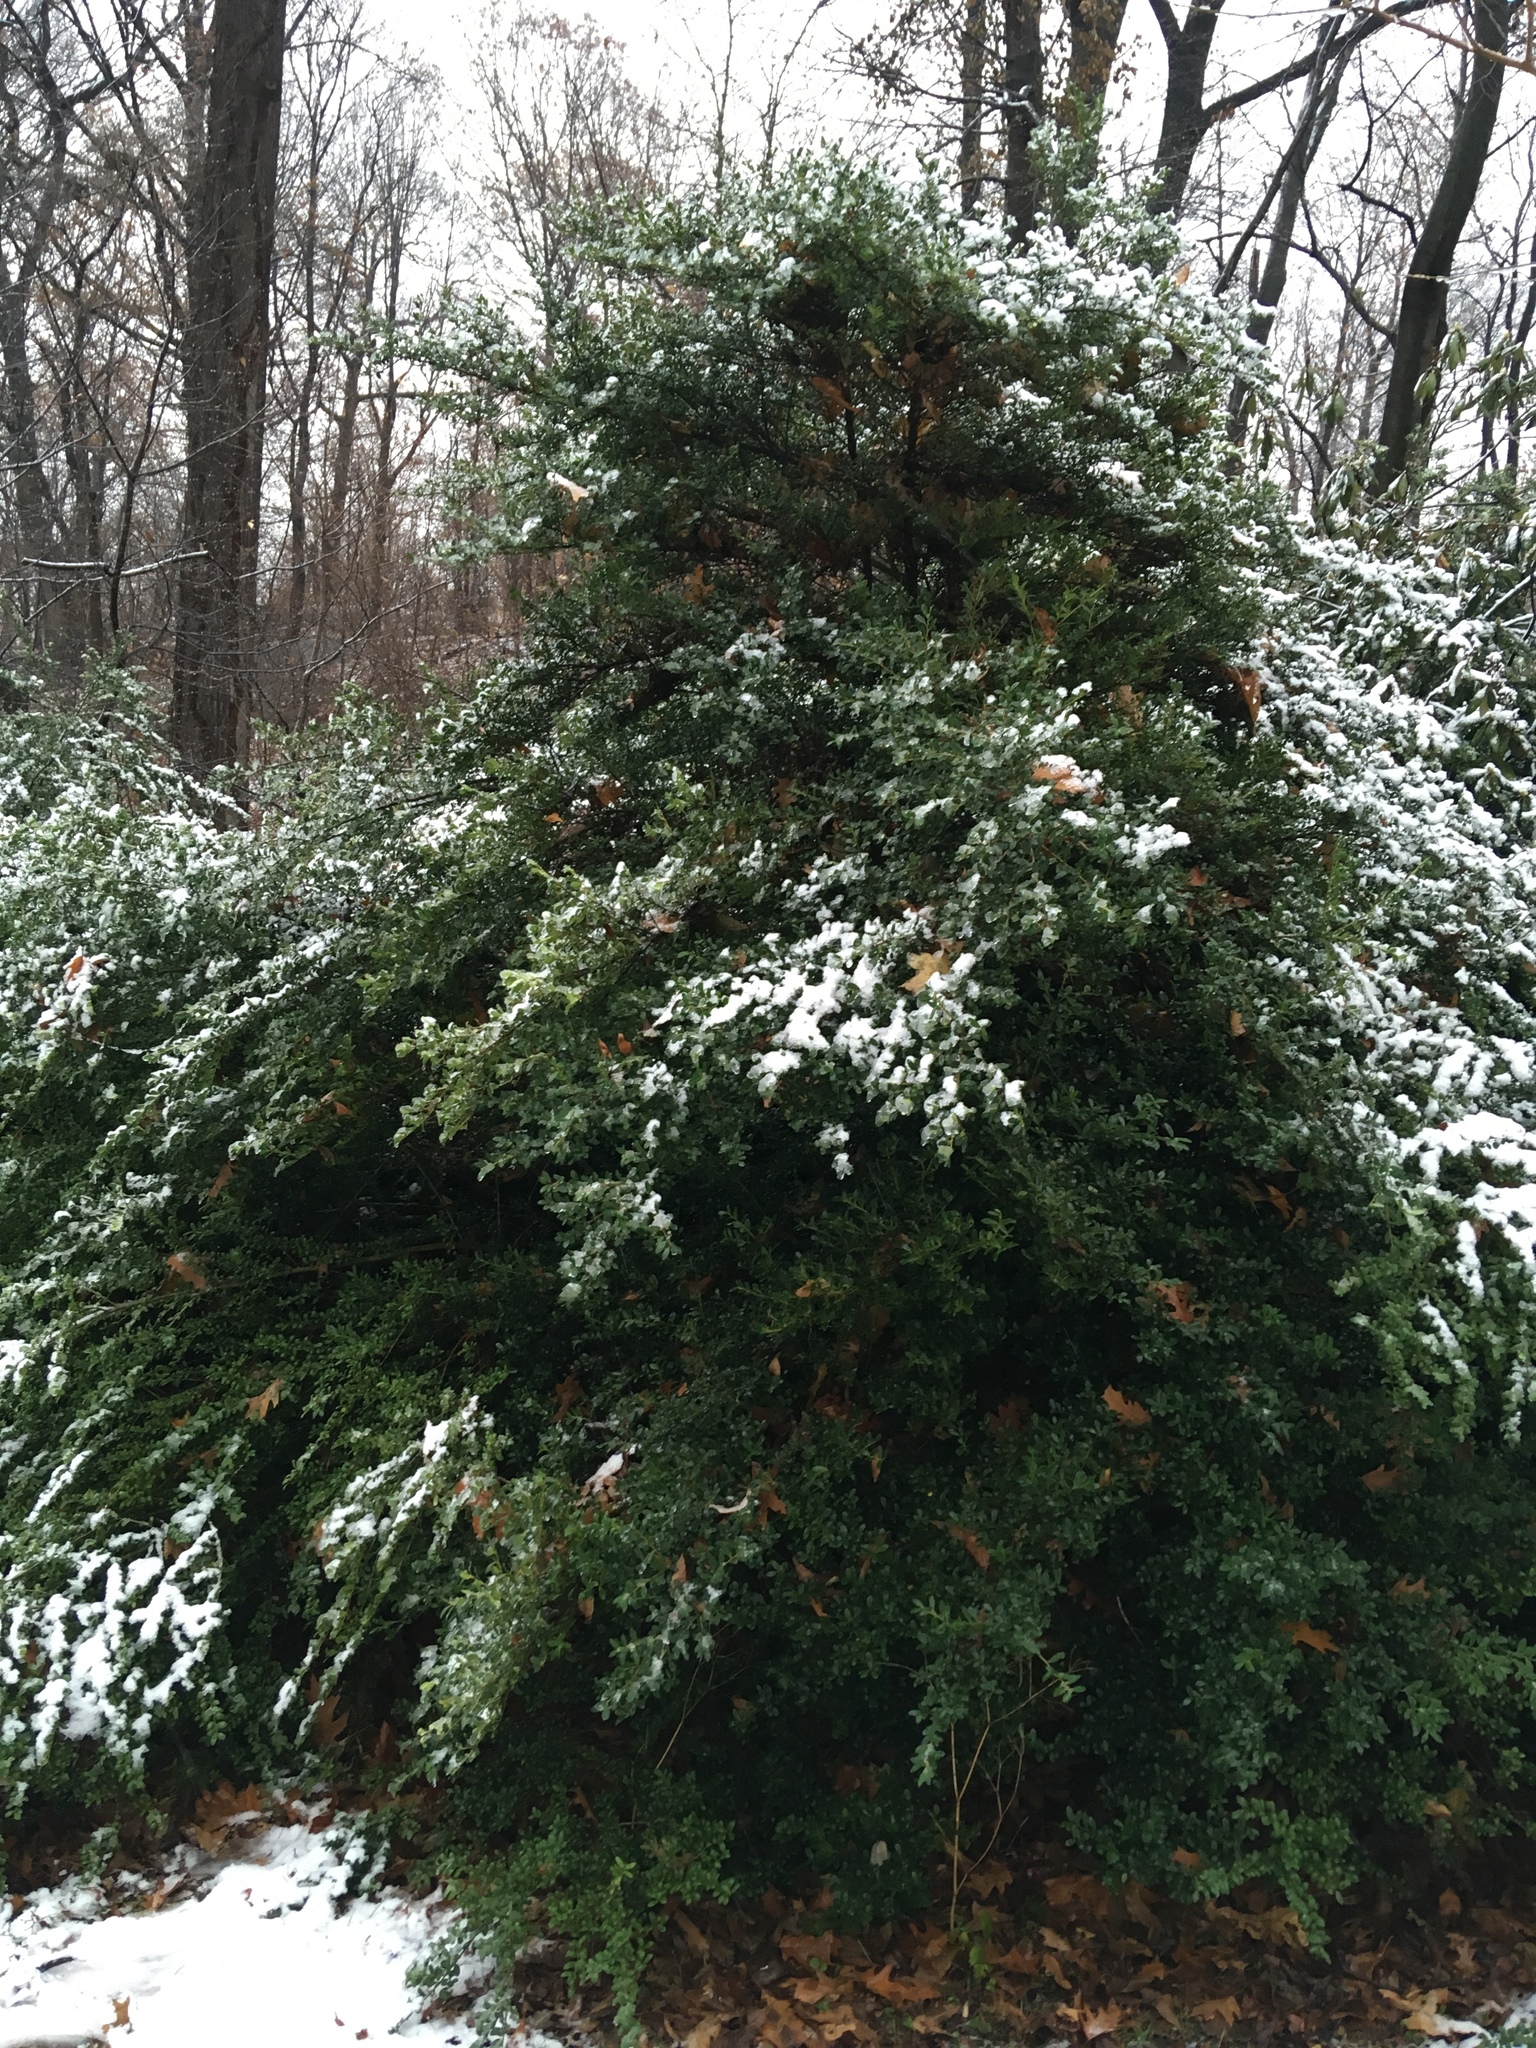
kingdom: Plantae
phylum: Tracheophyta
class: Magnoliopsida
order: Aquifoliales
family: Aquifoliaceae
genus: Ilex
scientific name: Ilex crenata
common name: Japanese holly
